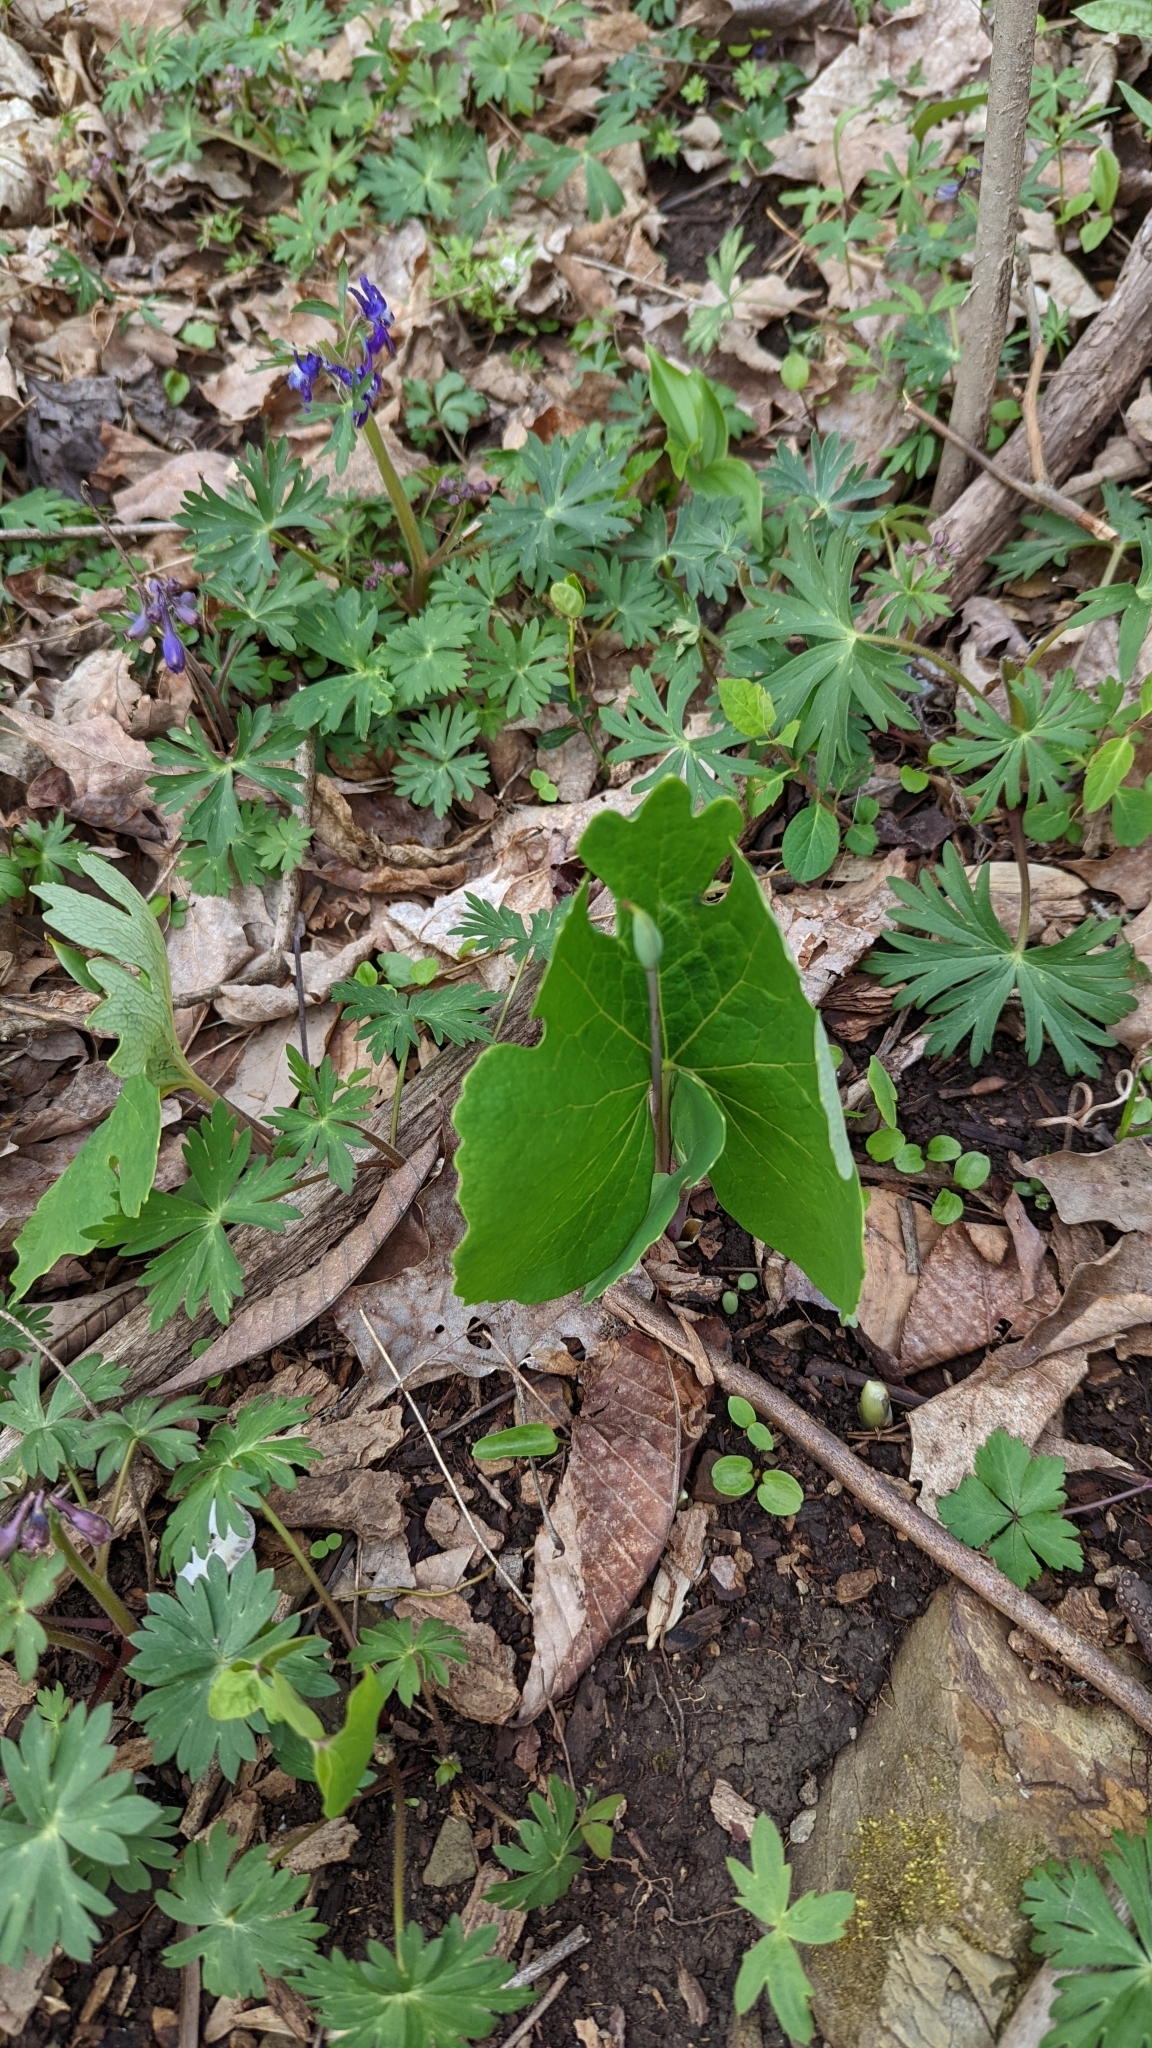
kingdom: Plantae
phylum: Tracheophyta
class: Magnoliopsida
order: Ranunculales
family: Papaveraceae
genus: Sanguinaria
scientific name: Sanguinaria canadensis
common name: Bloodroot
